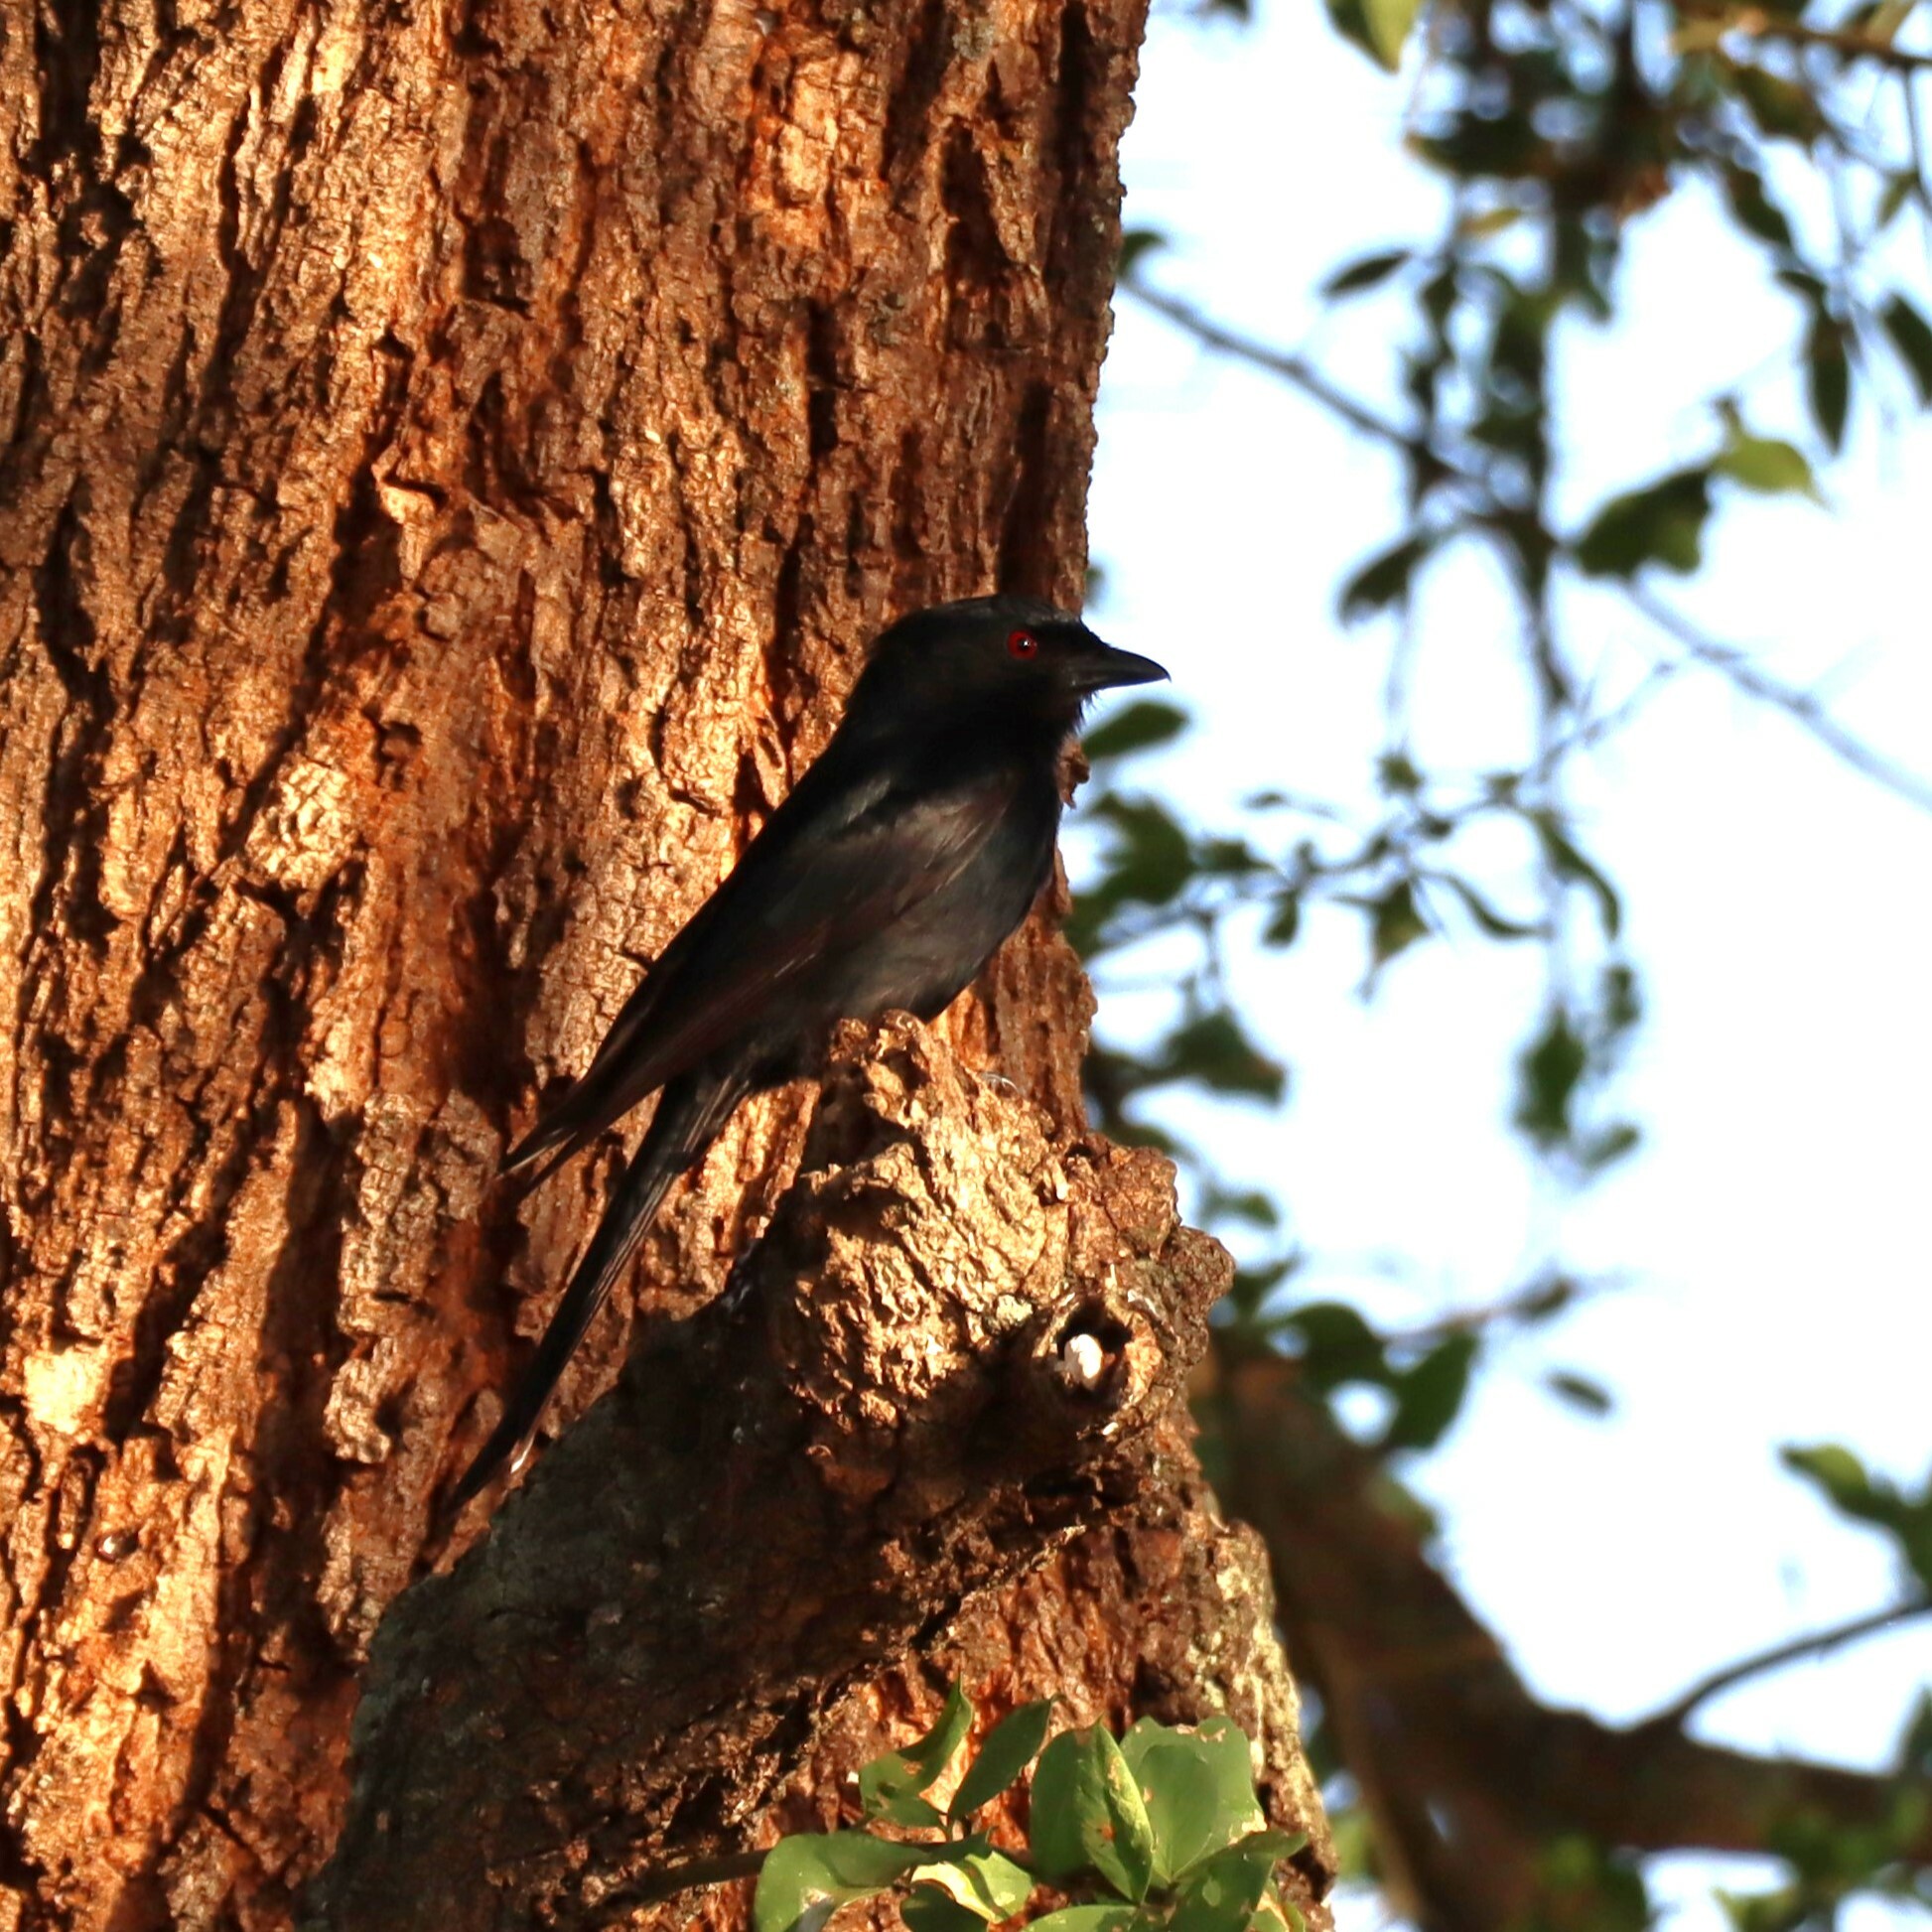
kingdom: Animalia
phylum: Chordata
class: Aves
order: Passeriformes
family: Dicruridae
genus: Dicrurus
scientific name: Dicrurus adsimilis
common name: Fork-tailed drongo
